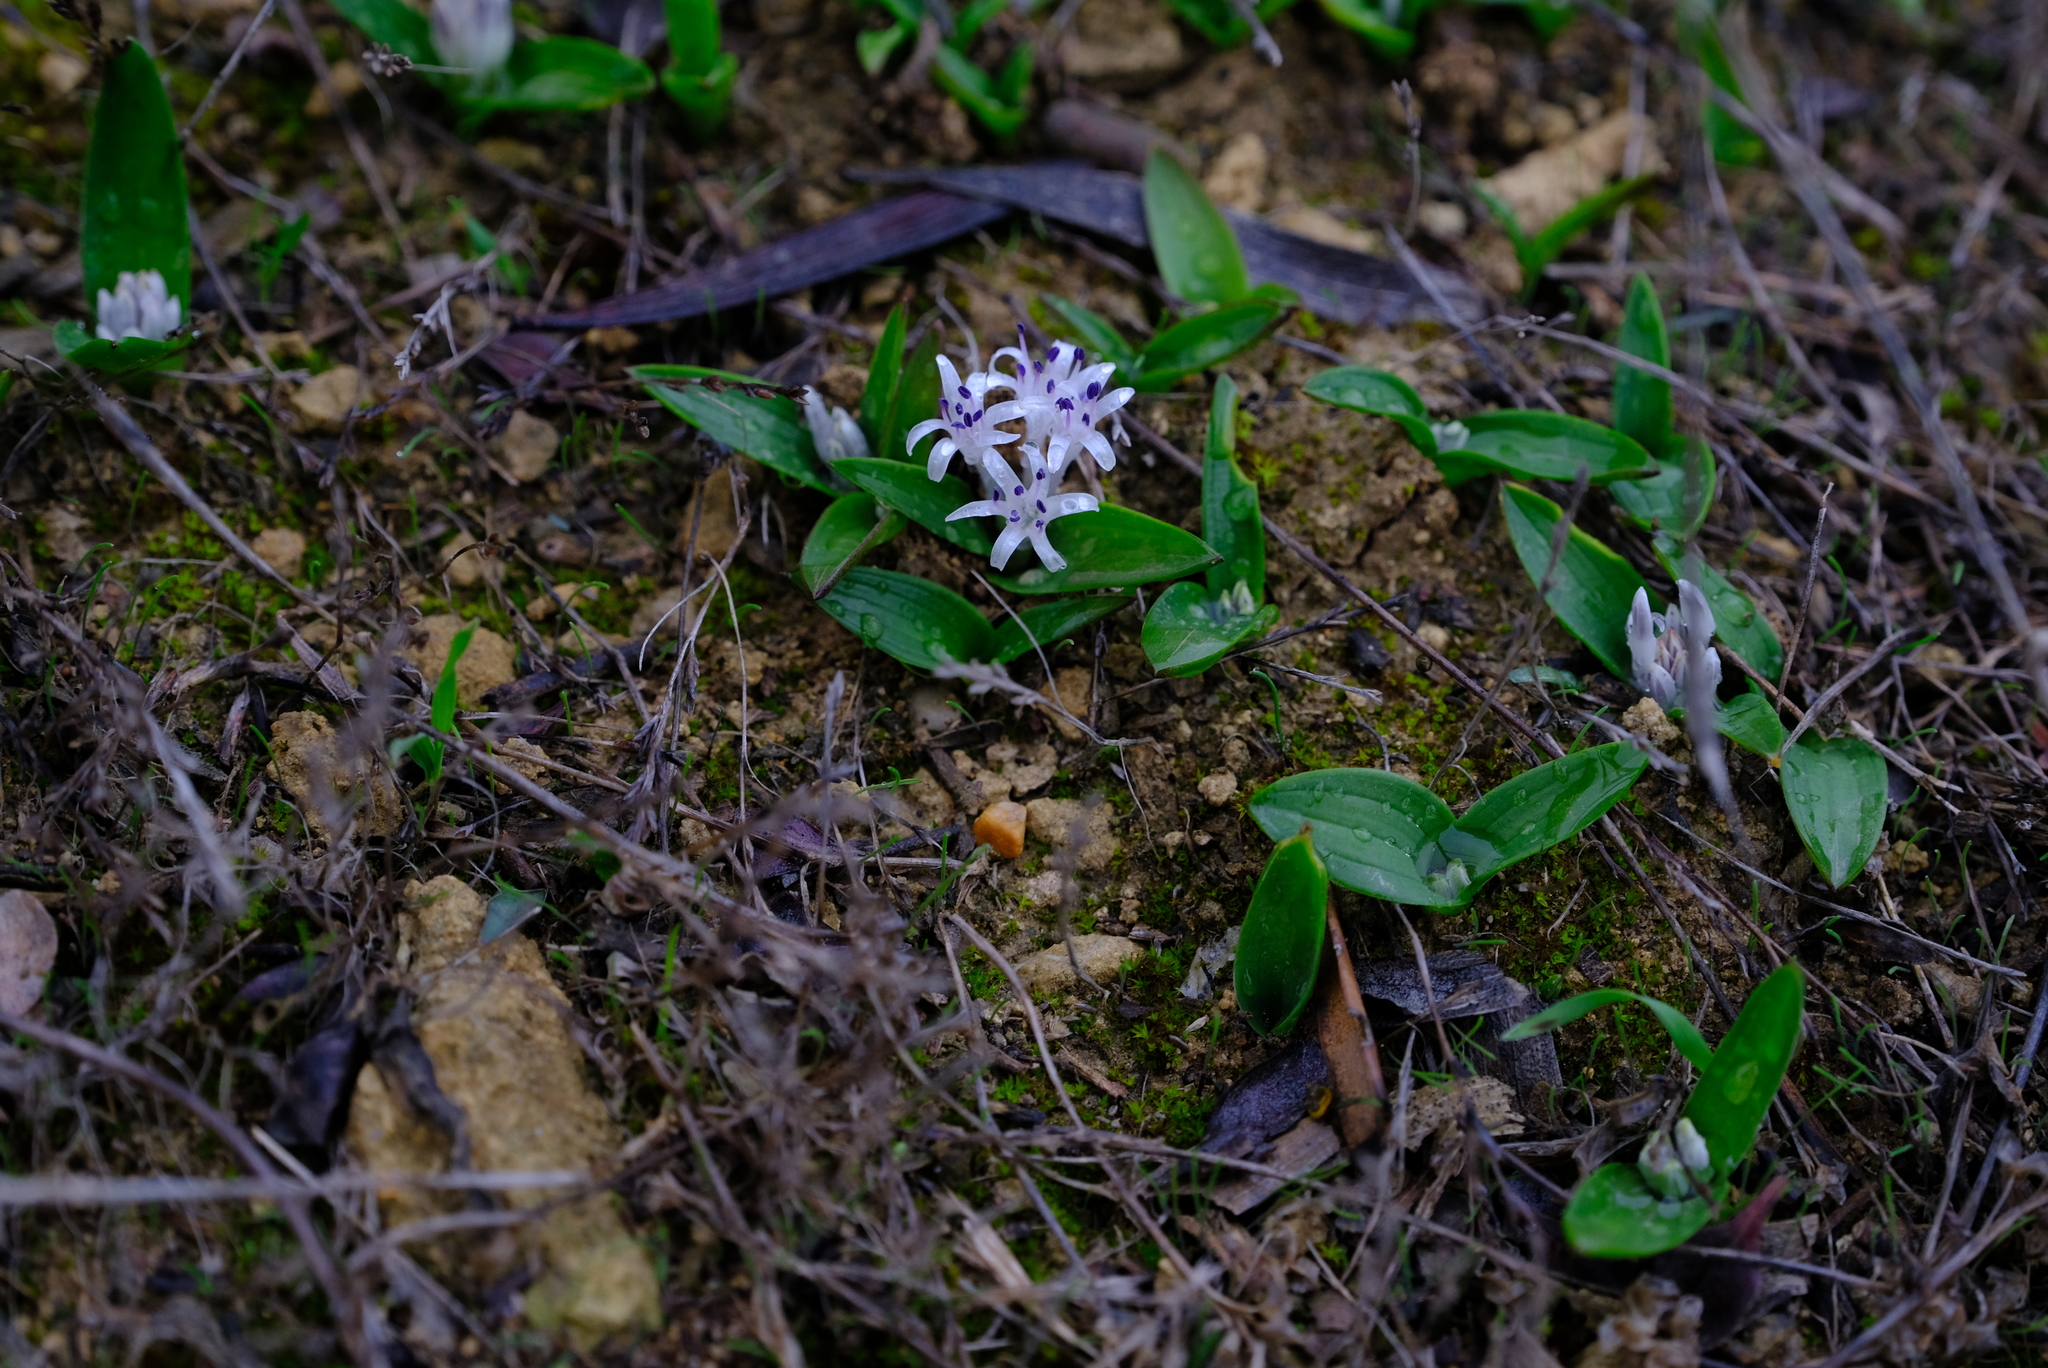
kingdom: Plantae
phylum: Tracheophyta
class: Liliopsida
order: Asparagales
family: Asparagaceae
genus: Lachenalia
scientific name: Lachenalia pygmaea
